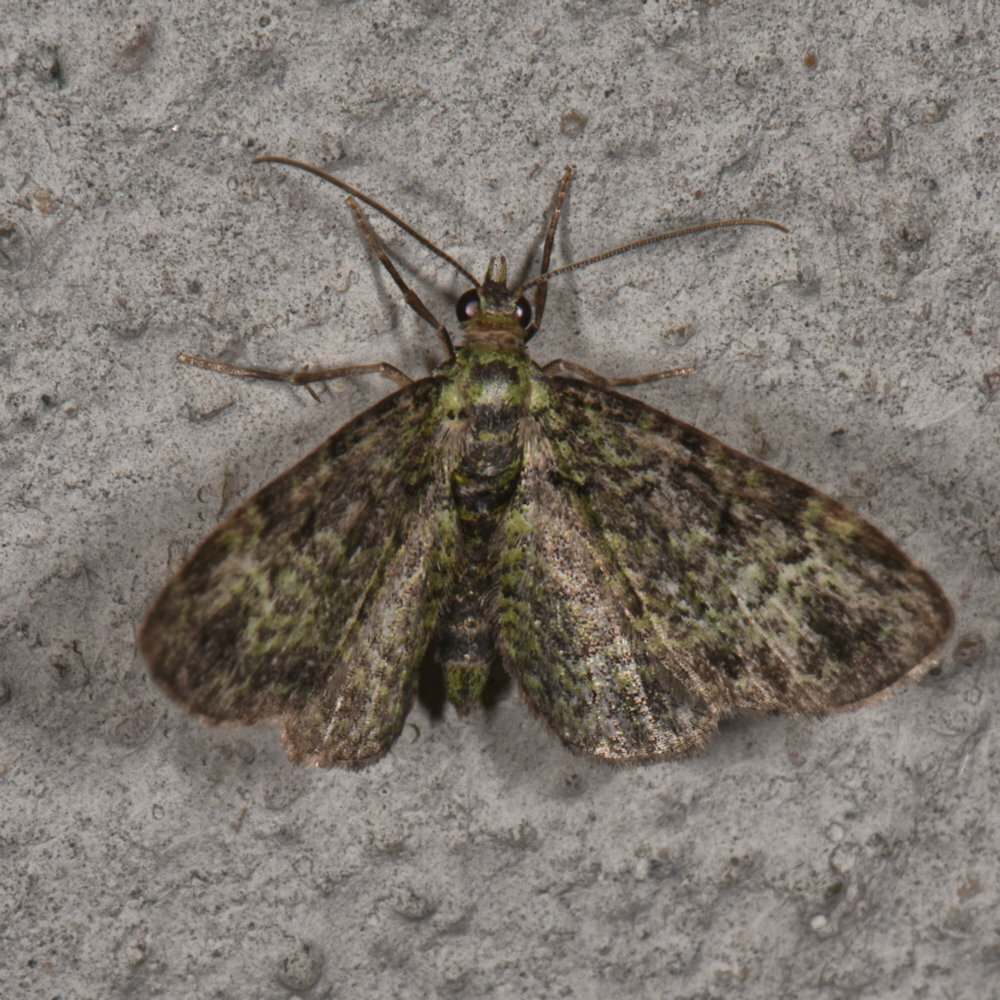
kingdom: Animalia
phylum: Arthropoda
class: Insecta
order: Lepidoptera
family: Geometridae
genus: Pasiphila
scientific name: Pasiphila rectangulata
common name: Green pug
